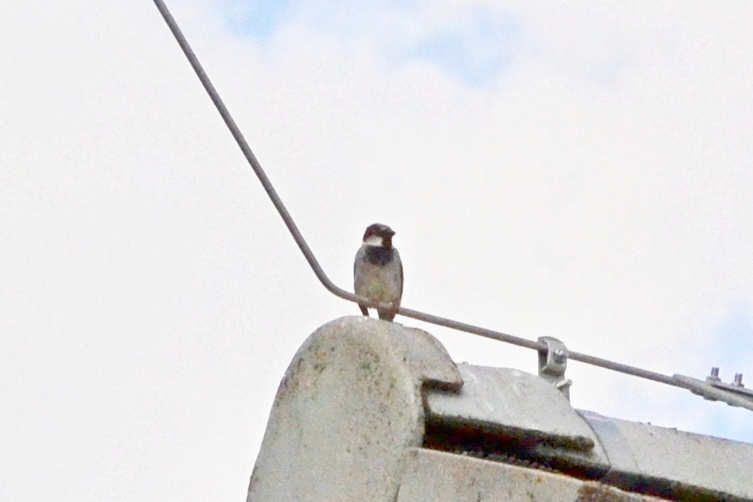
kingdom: Animalia
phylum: Chordata
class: Aves
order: Passeriformes
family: Passeridae
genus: Passer
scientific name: Passer domesticus
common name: House sparrow
